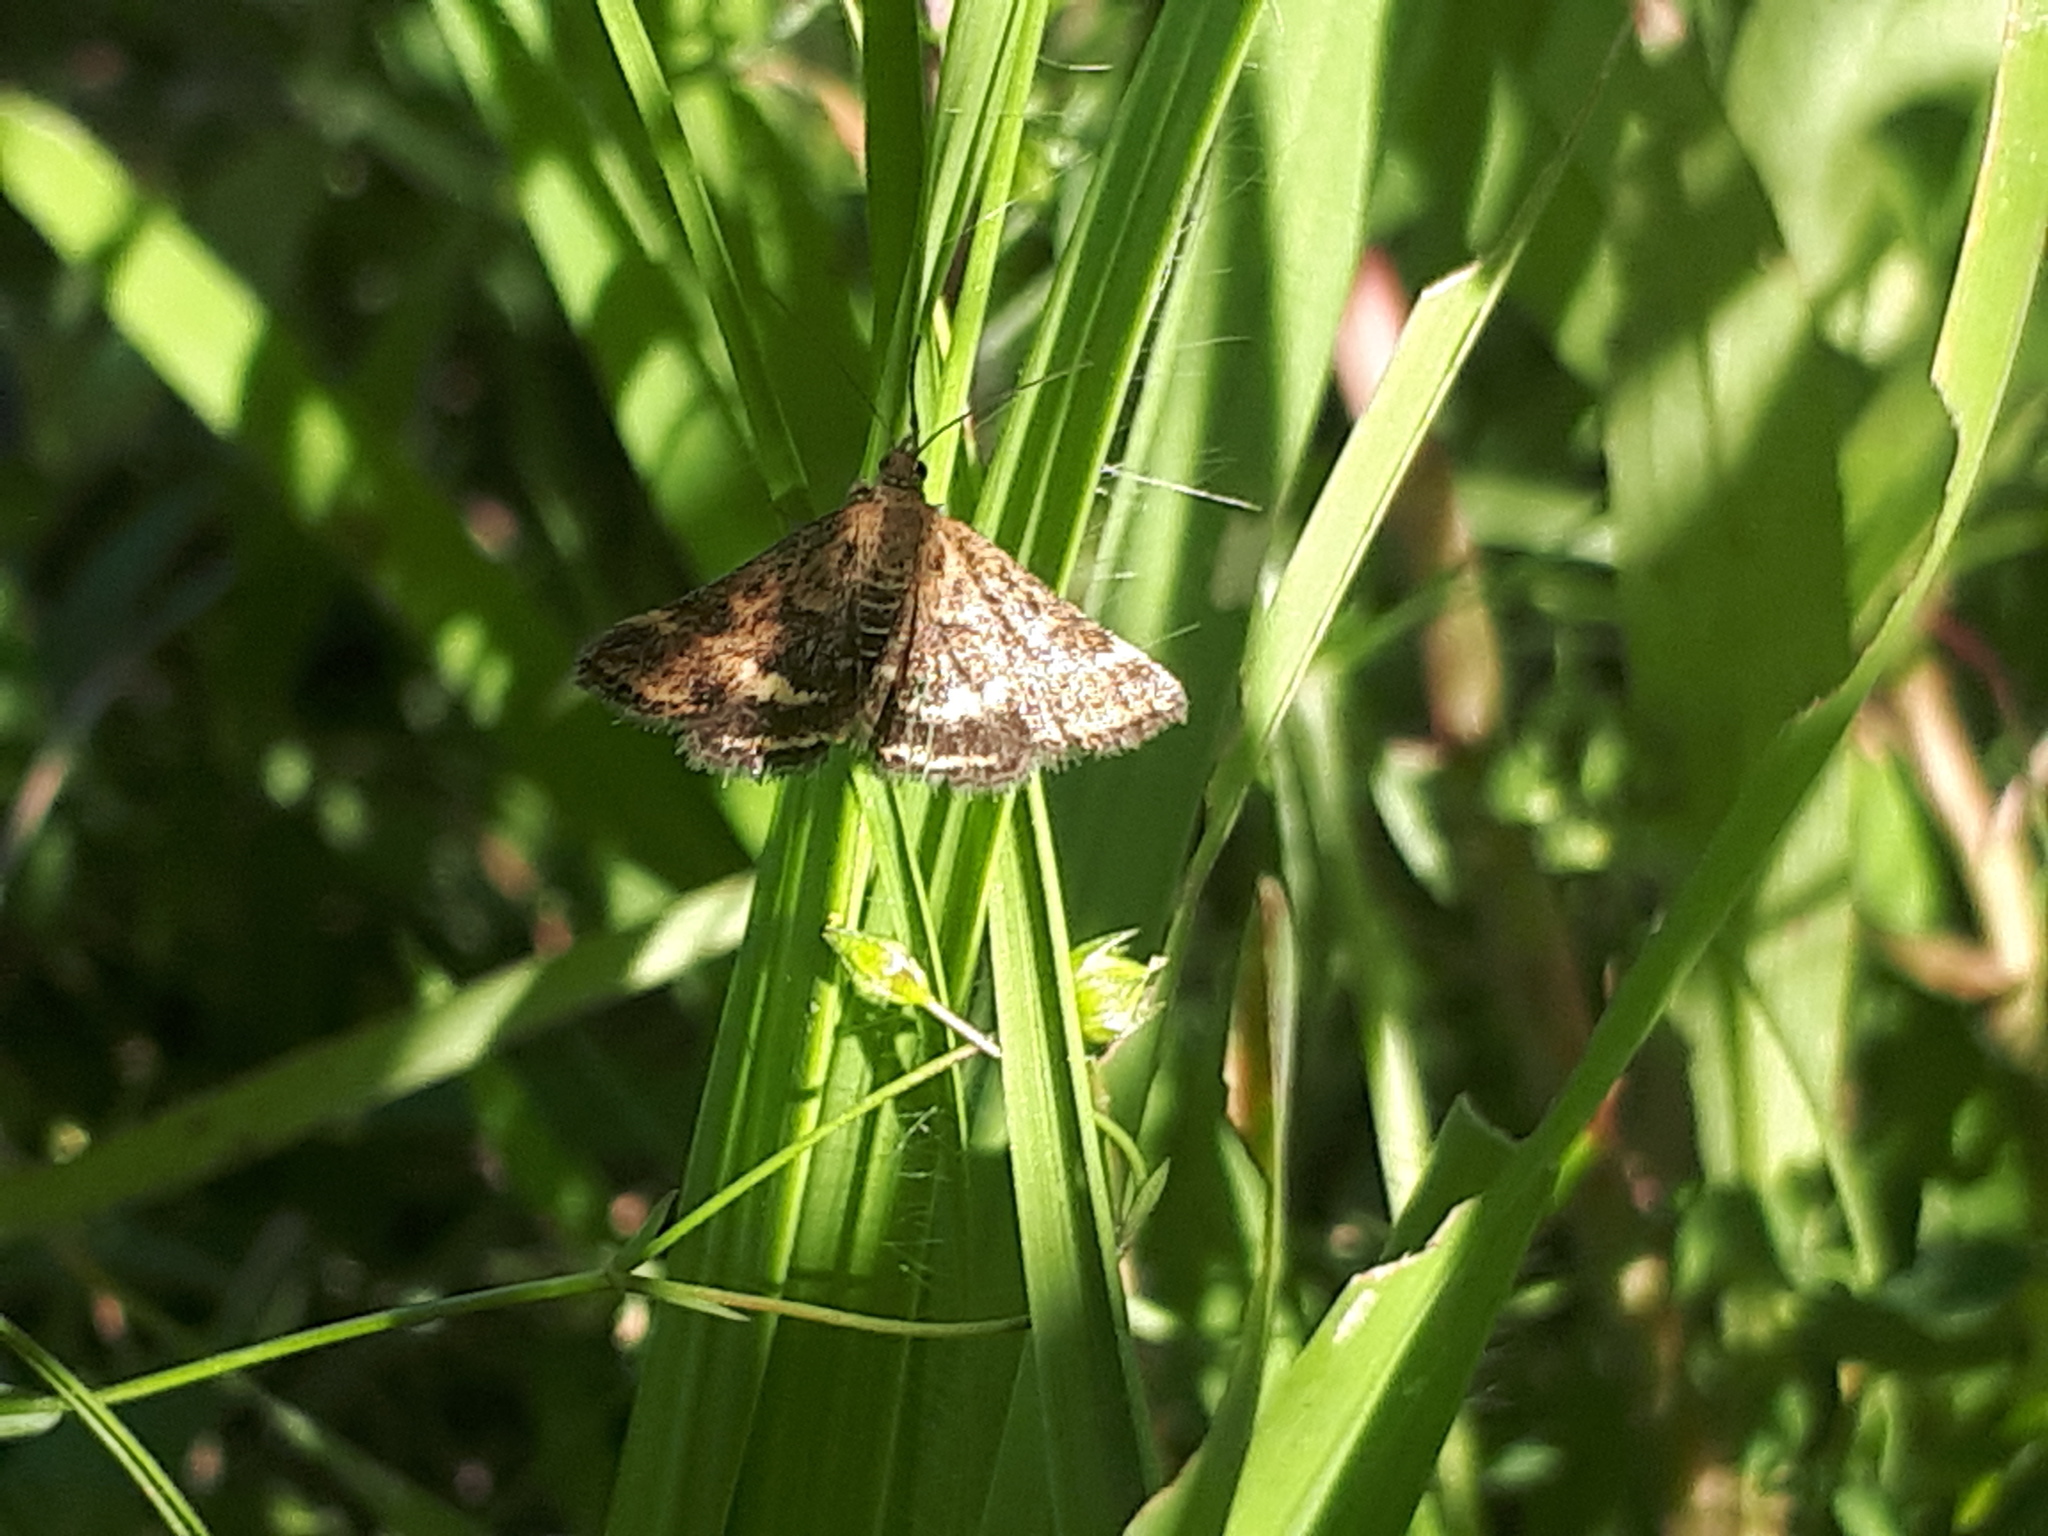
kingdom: Animalia
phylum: Arthropoda
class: Insecta
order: Lepidoptera
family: Crambidae
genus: Pyrausta
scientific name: Pyrausta despicata
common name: Straw-barred pearl
